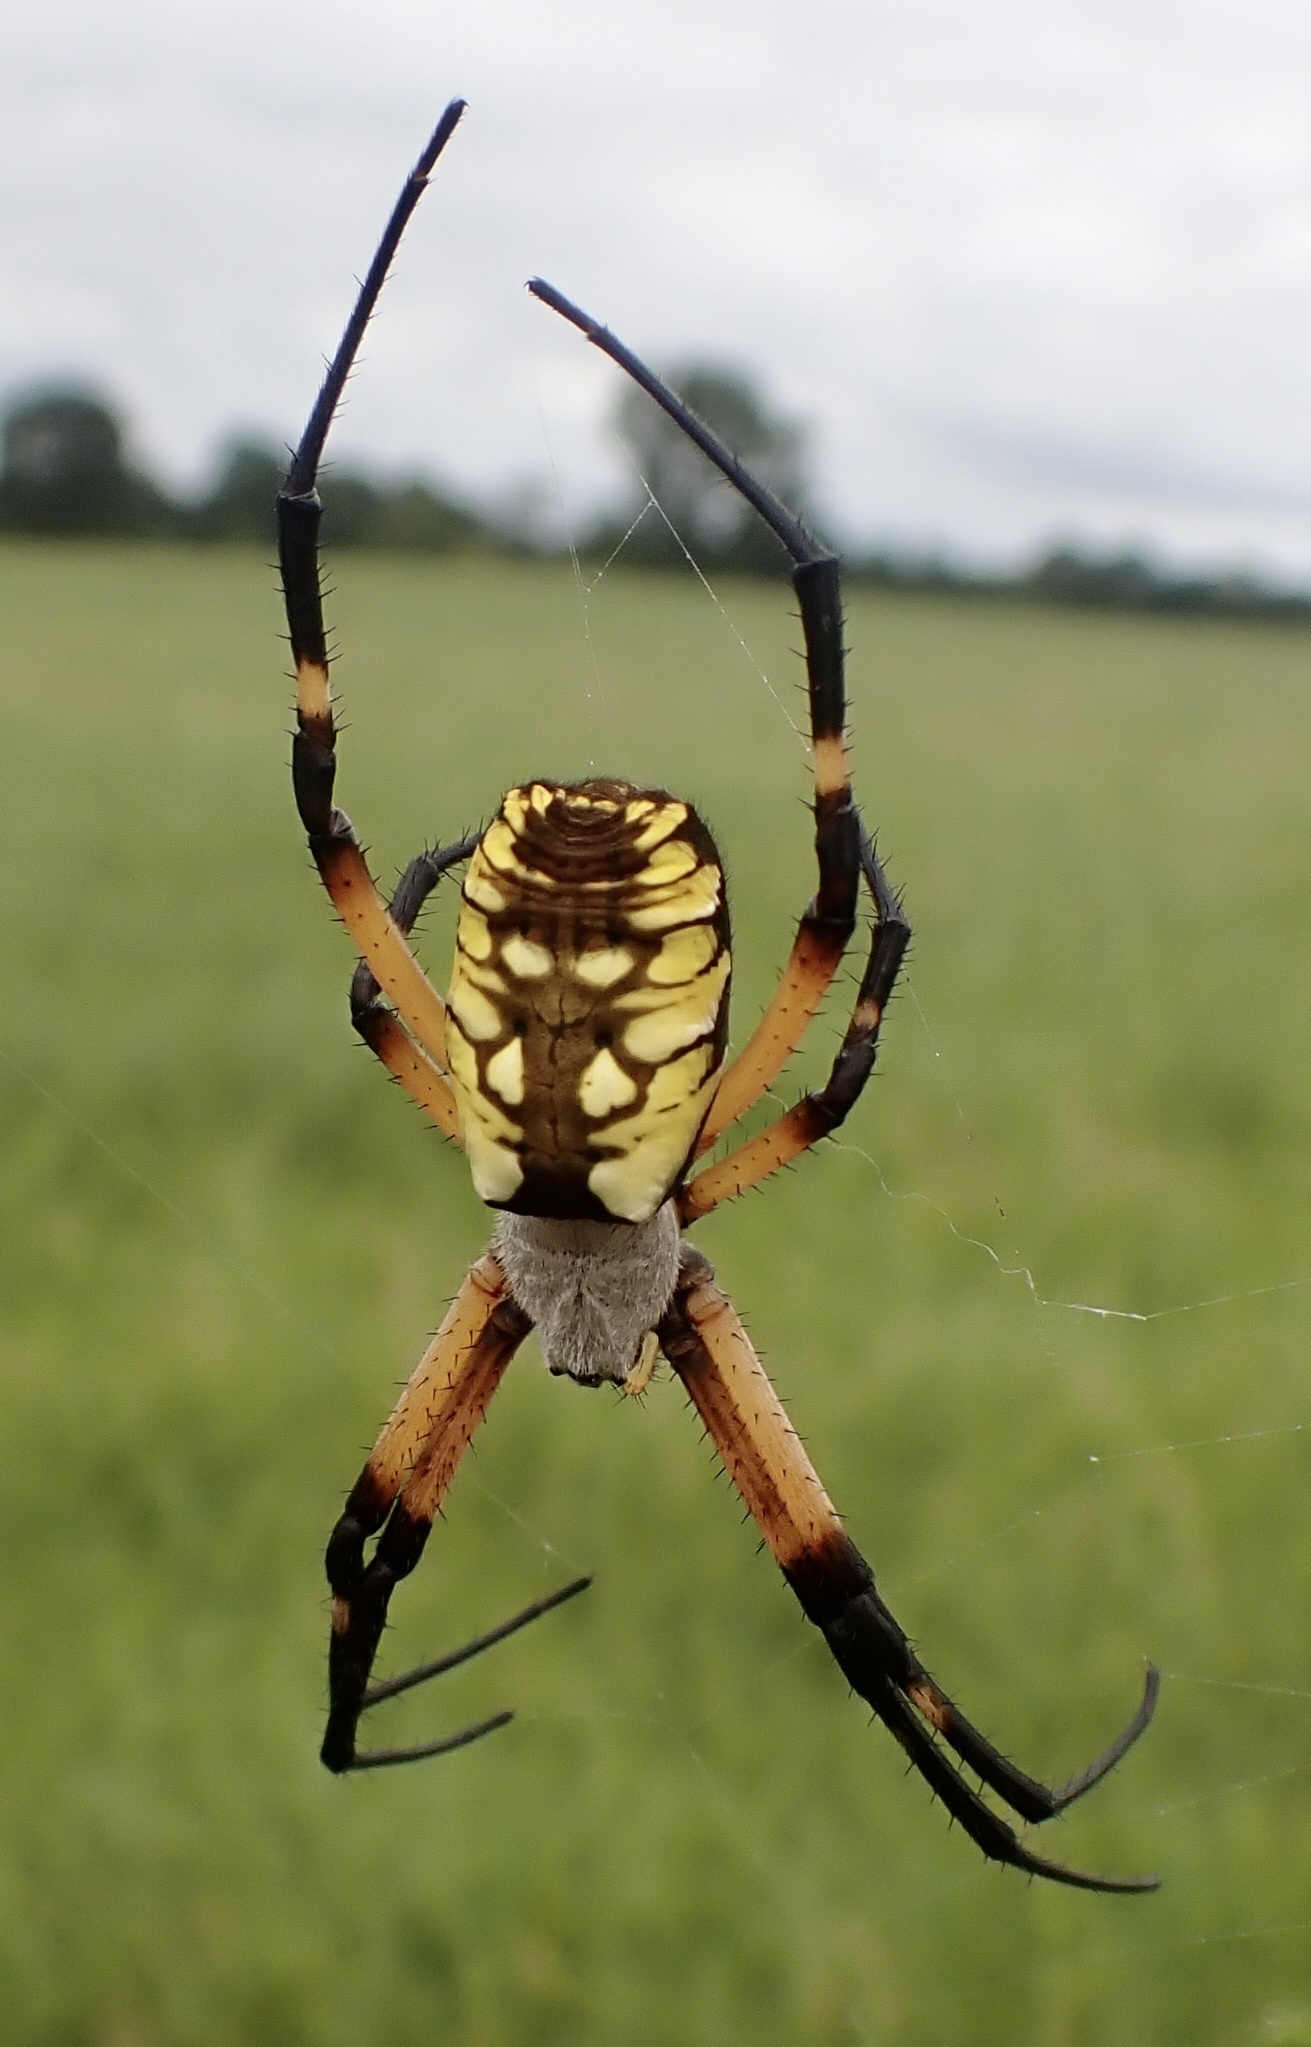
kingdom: Animalia
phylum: Arthropoda
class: Arachnida
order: Araneae
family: Araneidae
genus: Argiope
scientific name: Argiope aurantia
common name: Orb weavers
